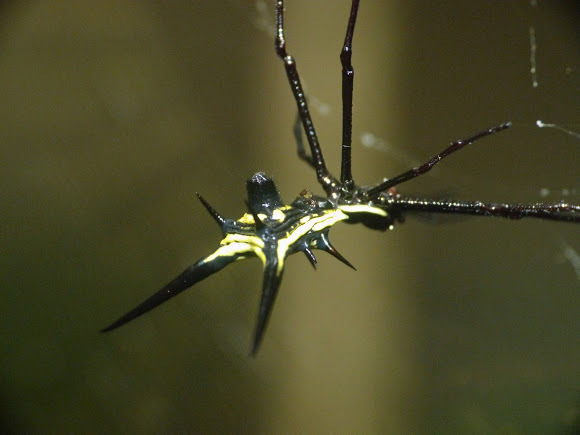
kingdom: Animalia
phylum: Arthropoda
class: Arachnida
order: Araneae
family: Araneidae
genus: Micrathena
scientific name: Micrathena schreibersi
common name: Orb weavers
